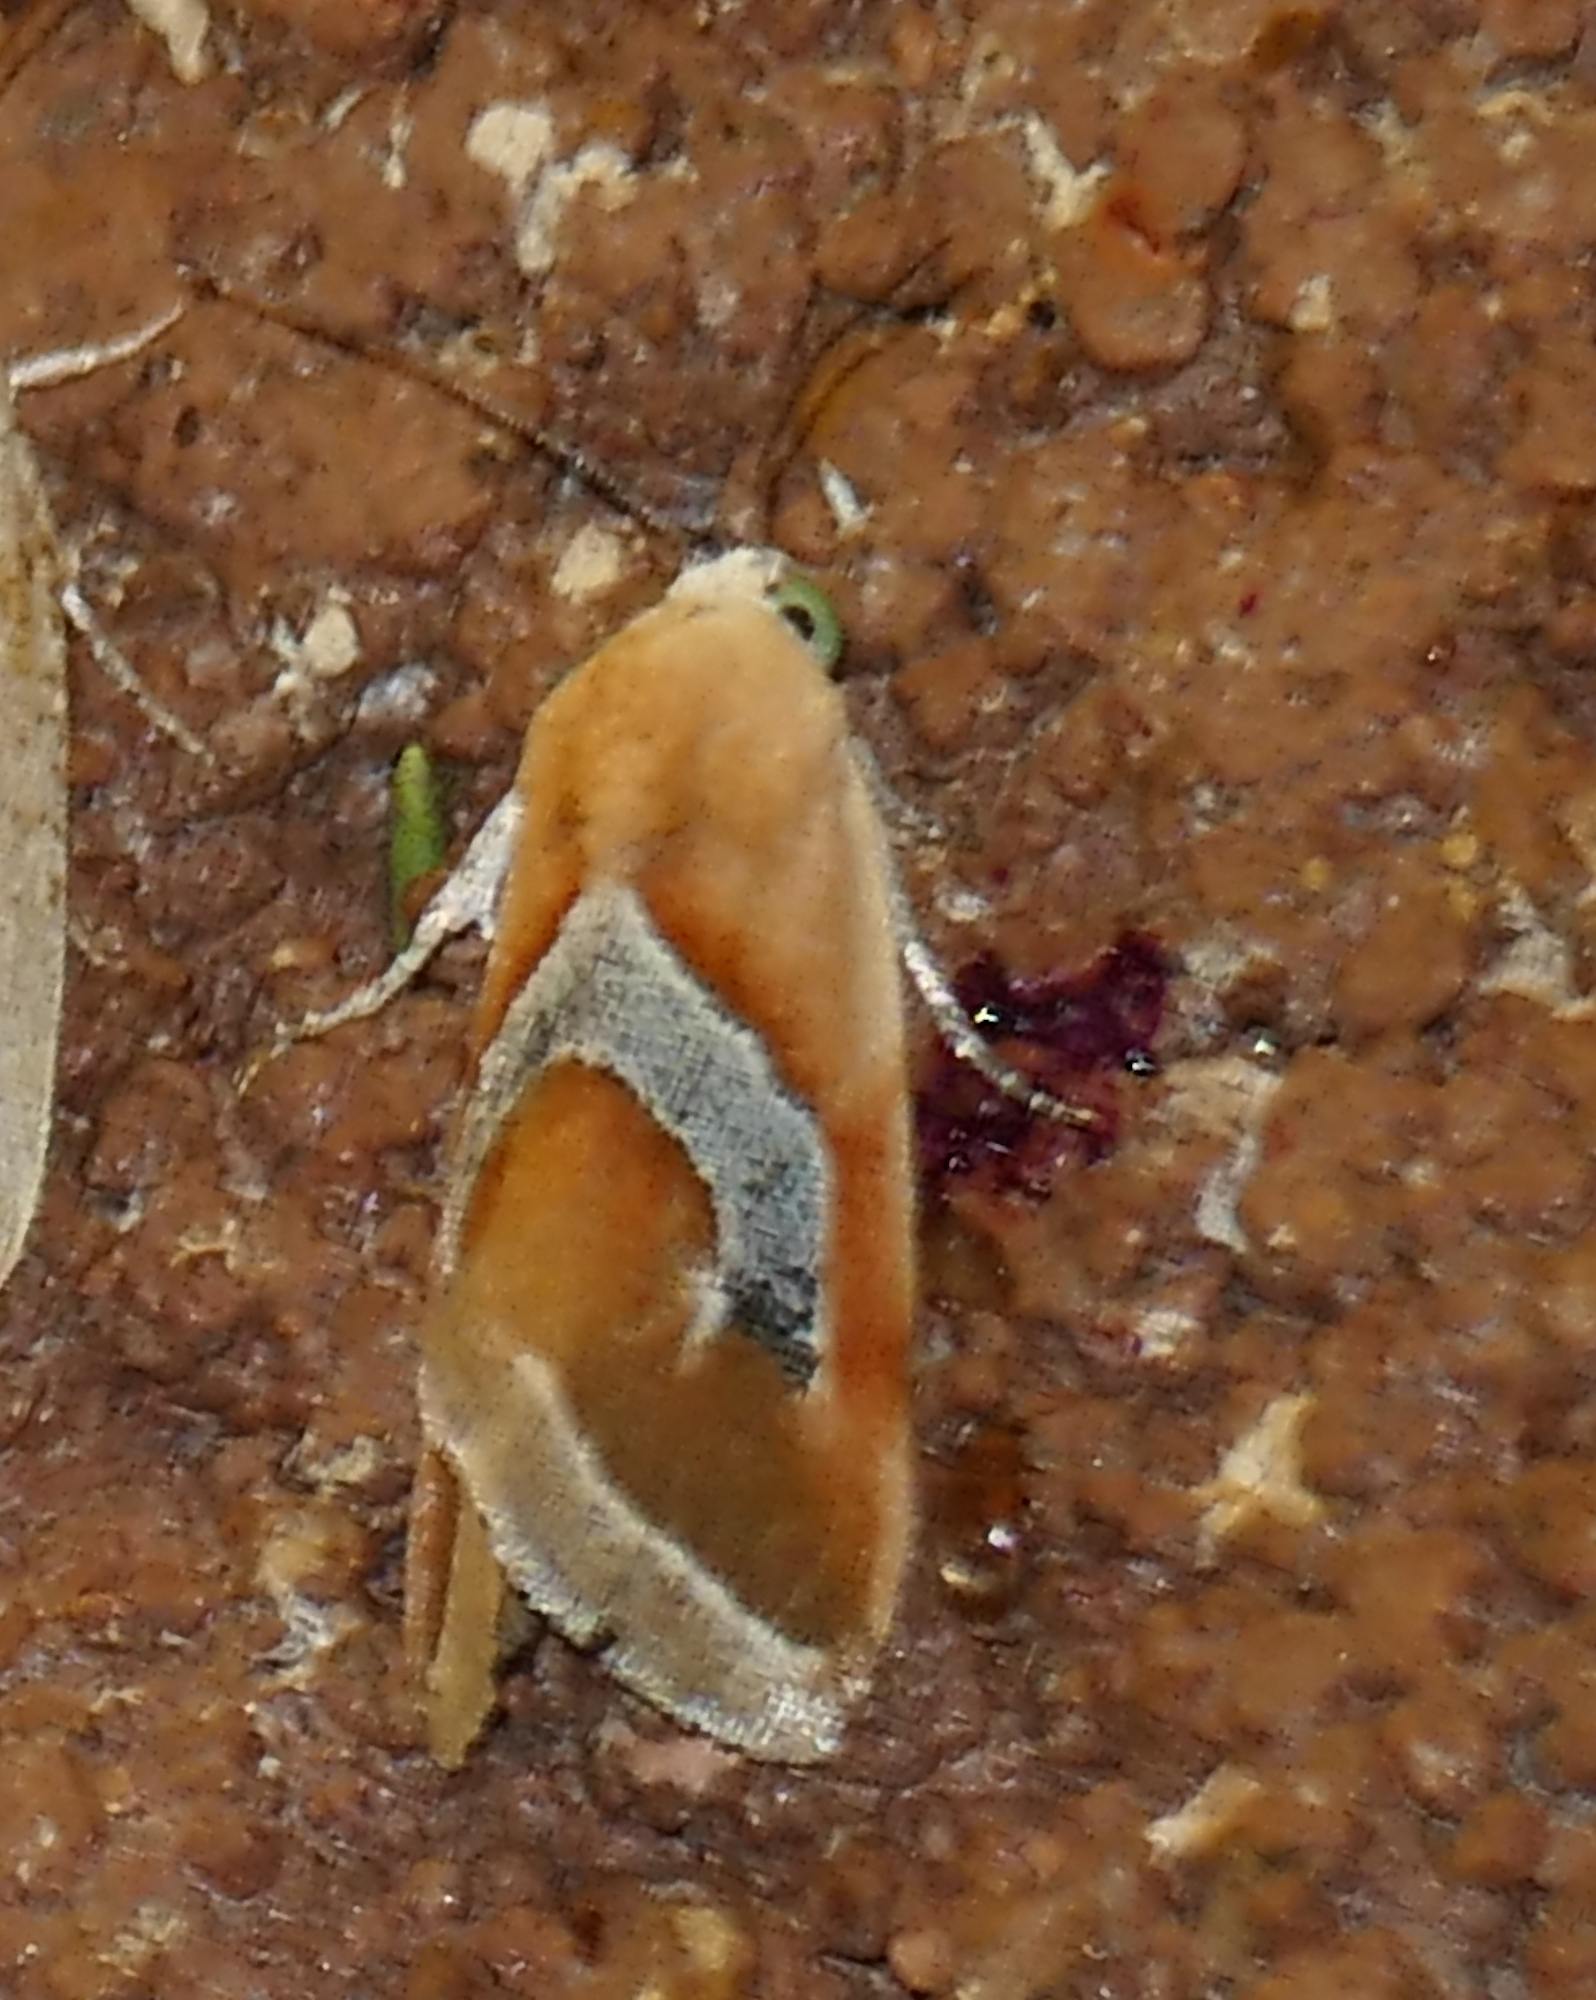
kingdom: Animalia
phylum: Arthropoda
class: Insecta
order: Lepidoptera
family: Noctuidae
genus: Ponometia
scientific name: Ponometia venustula
